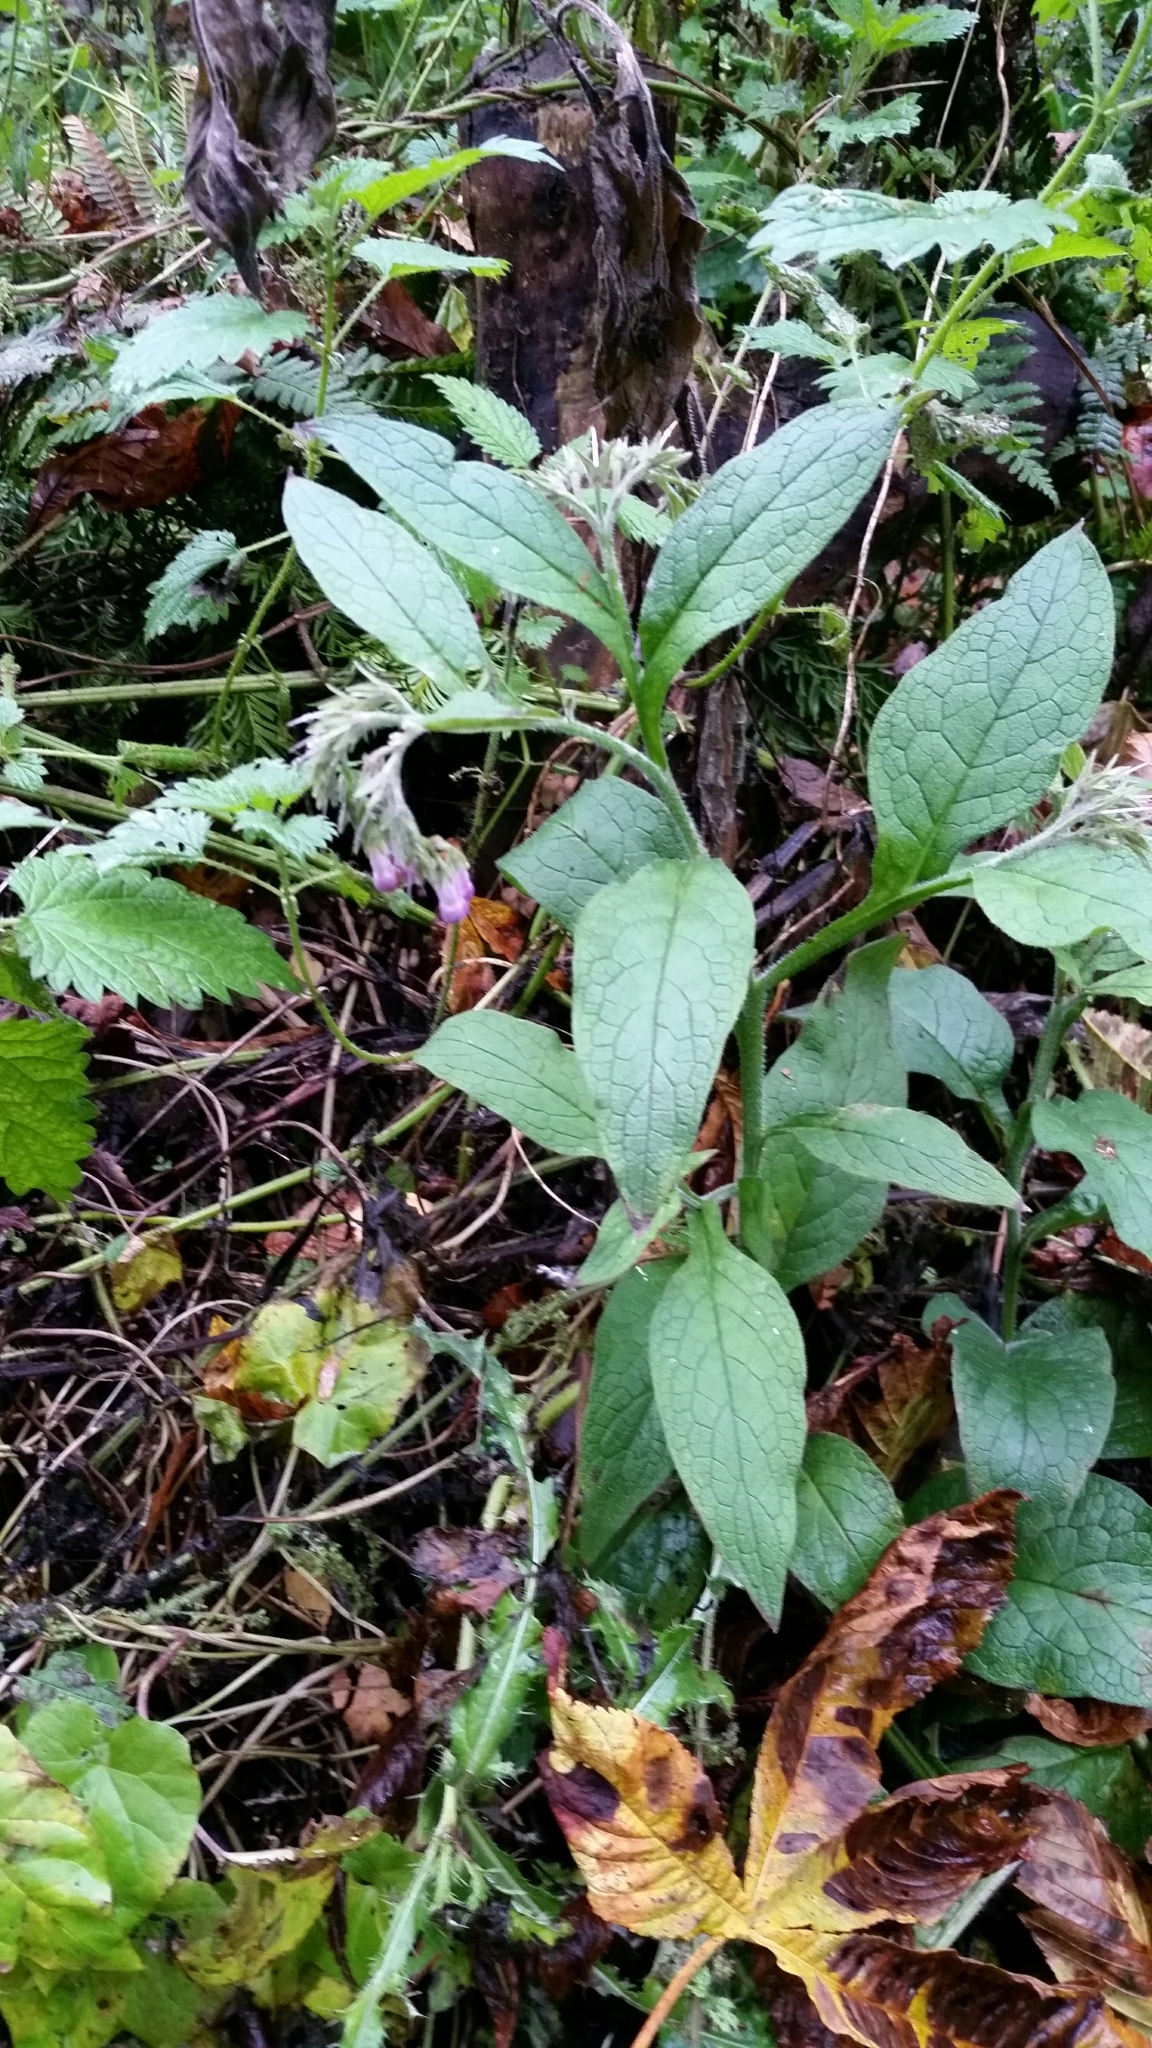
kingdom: Plantae
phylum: Tracheophyta
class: Magnoliopsida
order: Boraginales
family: Boraginaceae
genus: Symphytum
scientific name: Symphytum officinale
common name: Common comfrey
